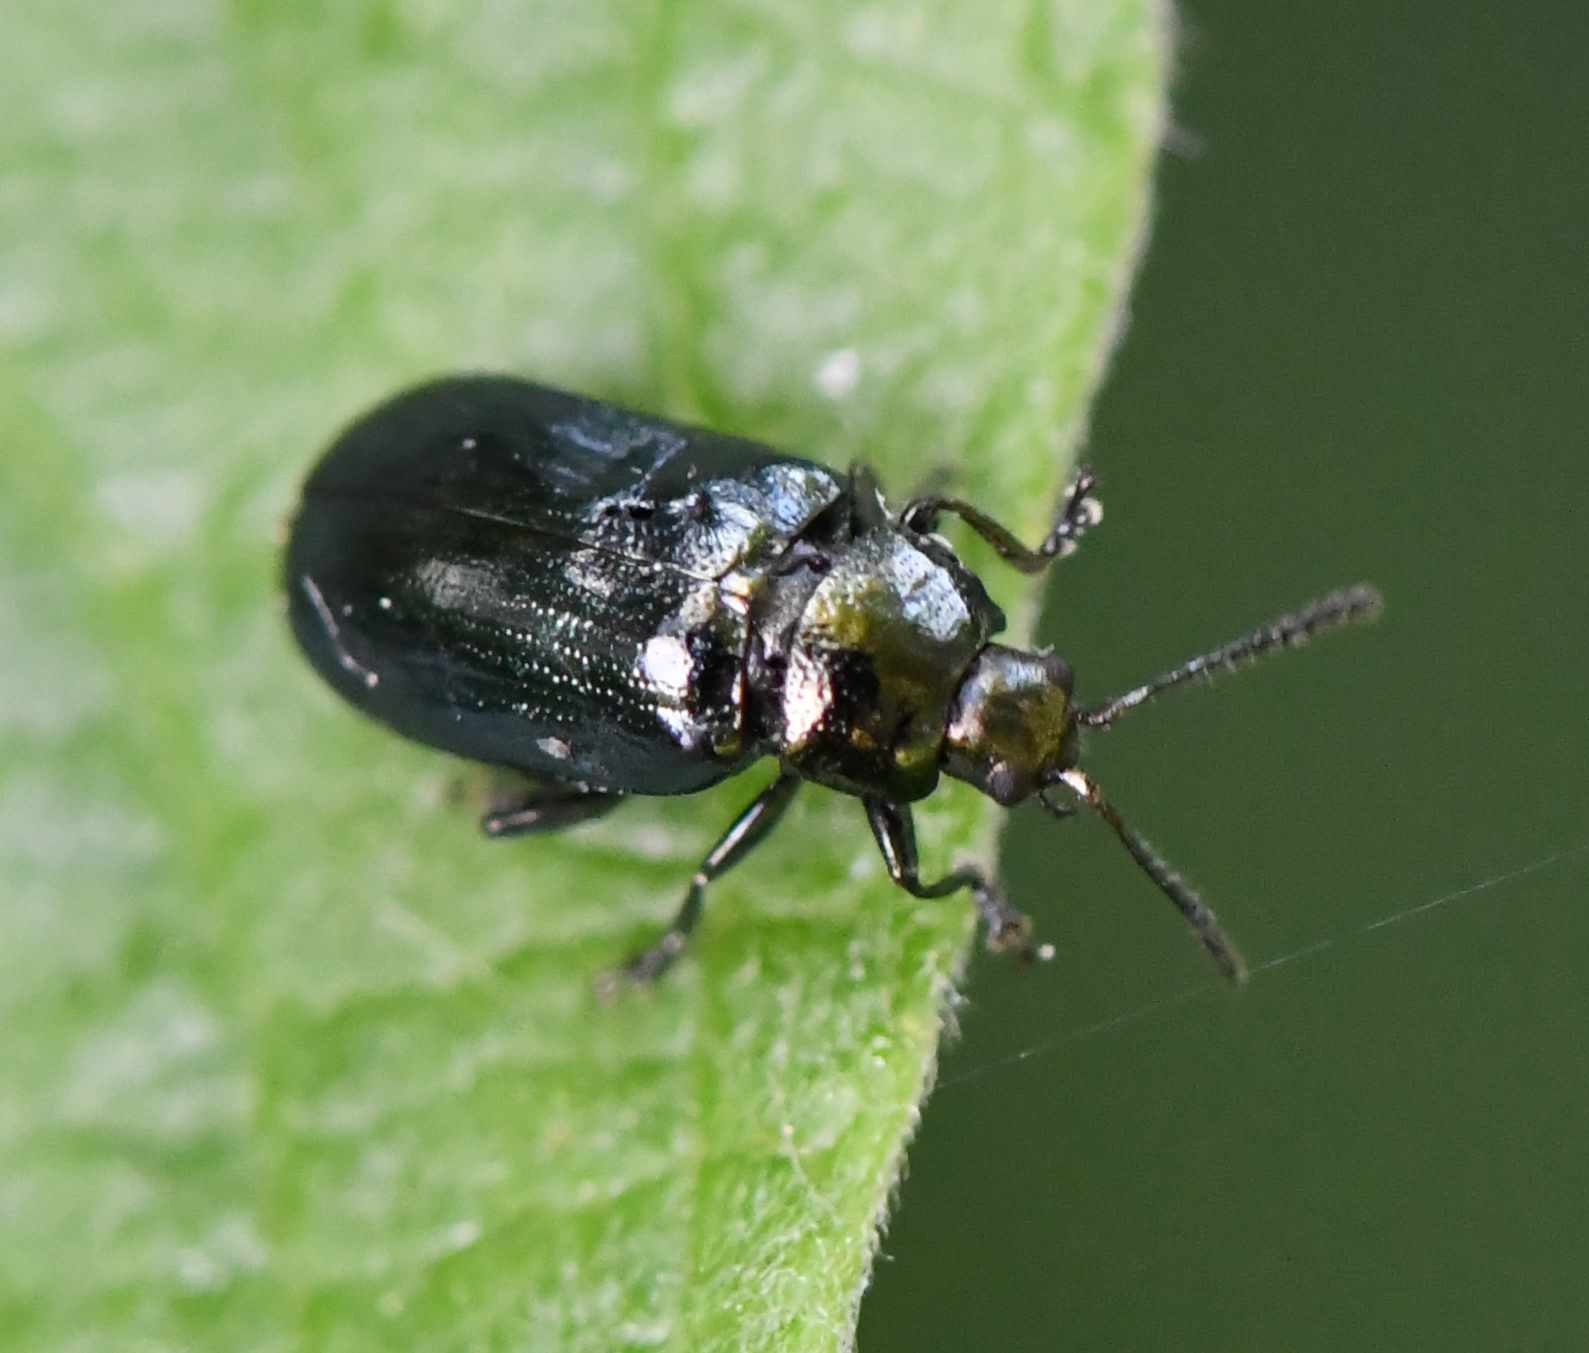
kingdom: Animalia
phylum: Arthropoda
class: Insecta
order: Coleoptera
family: Chrysomelidae
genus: Phratora
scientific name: Phratora vulgatissima
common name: Blue willow beetle
